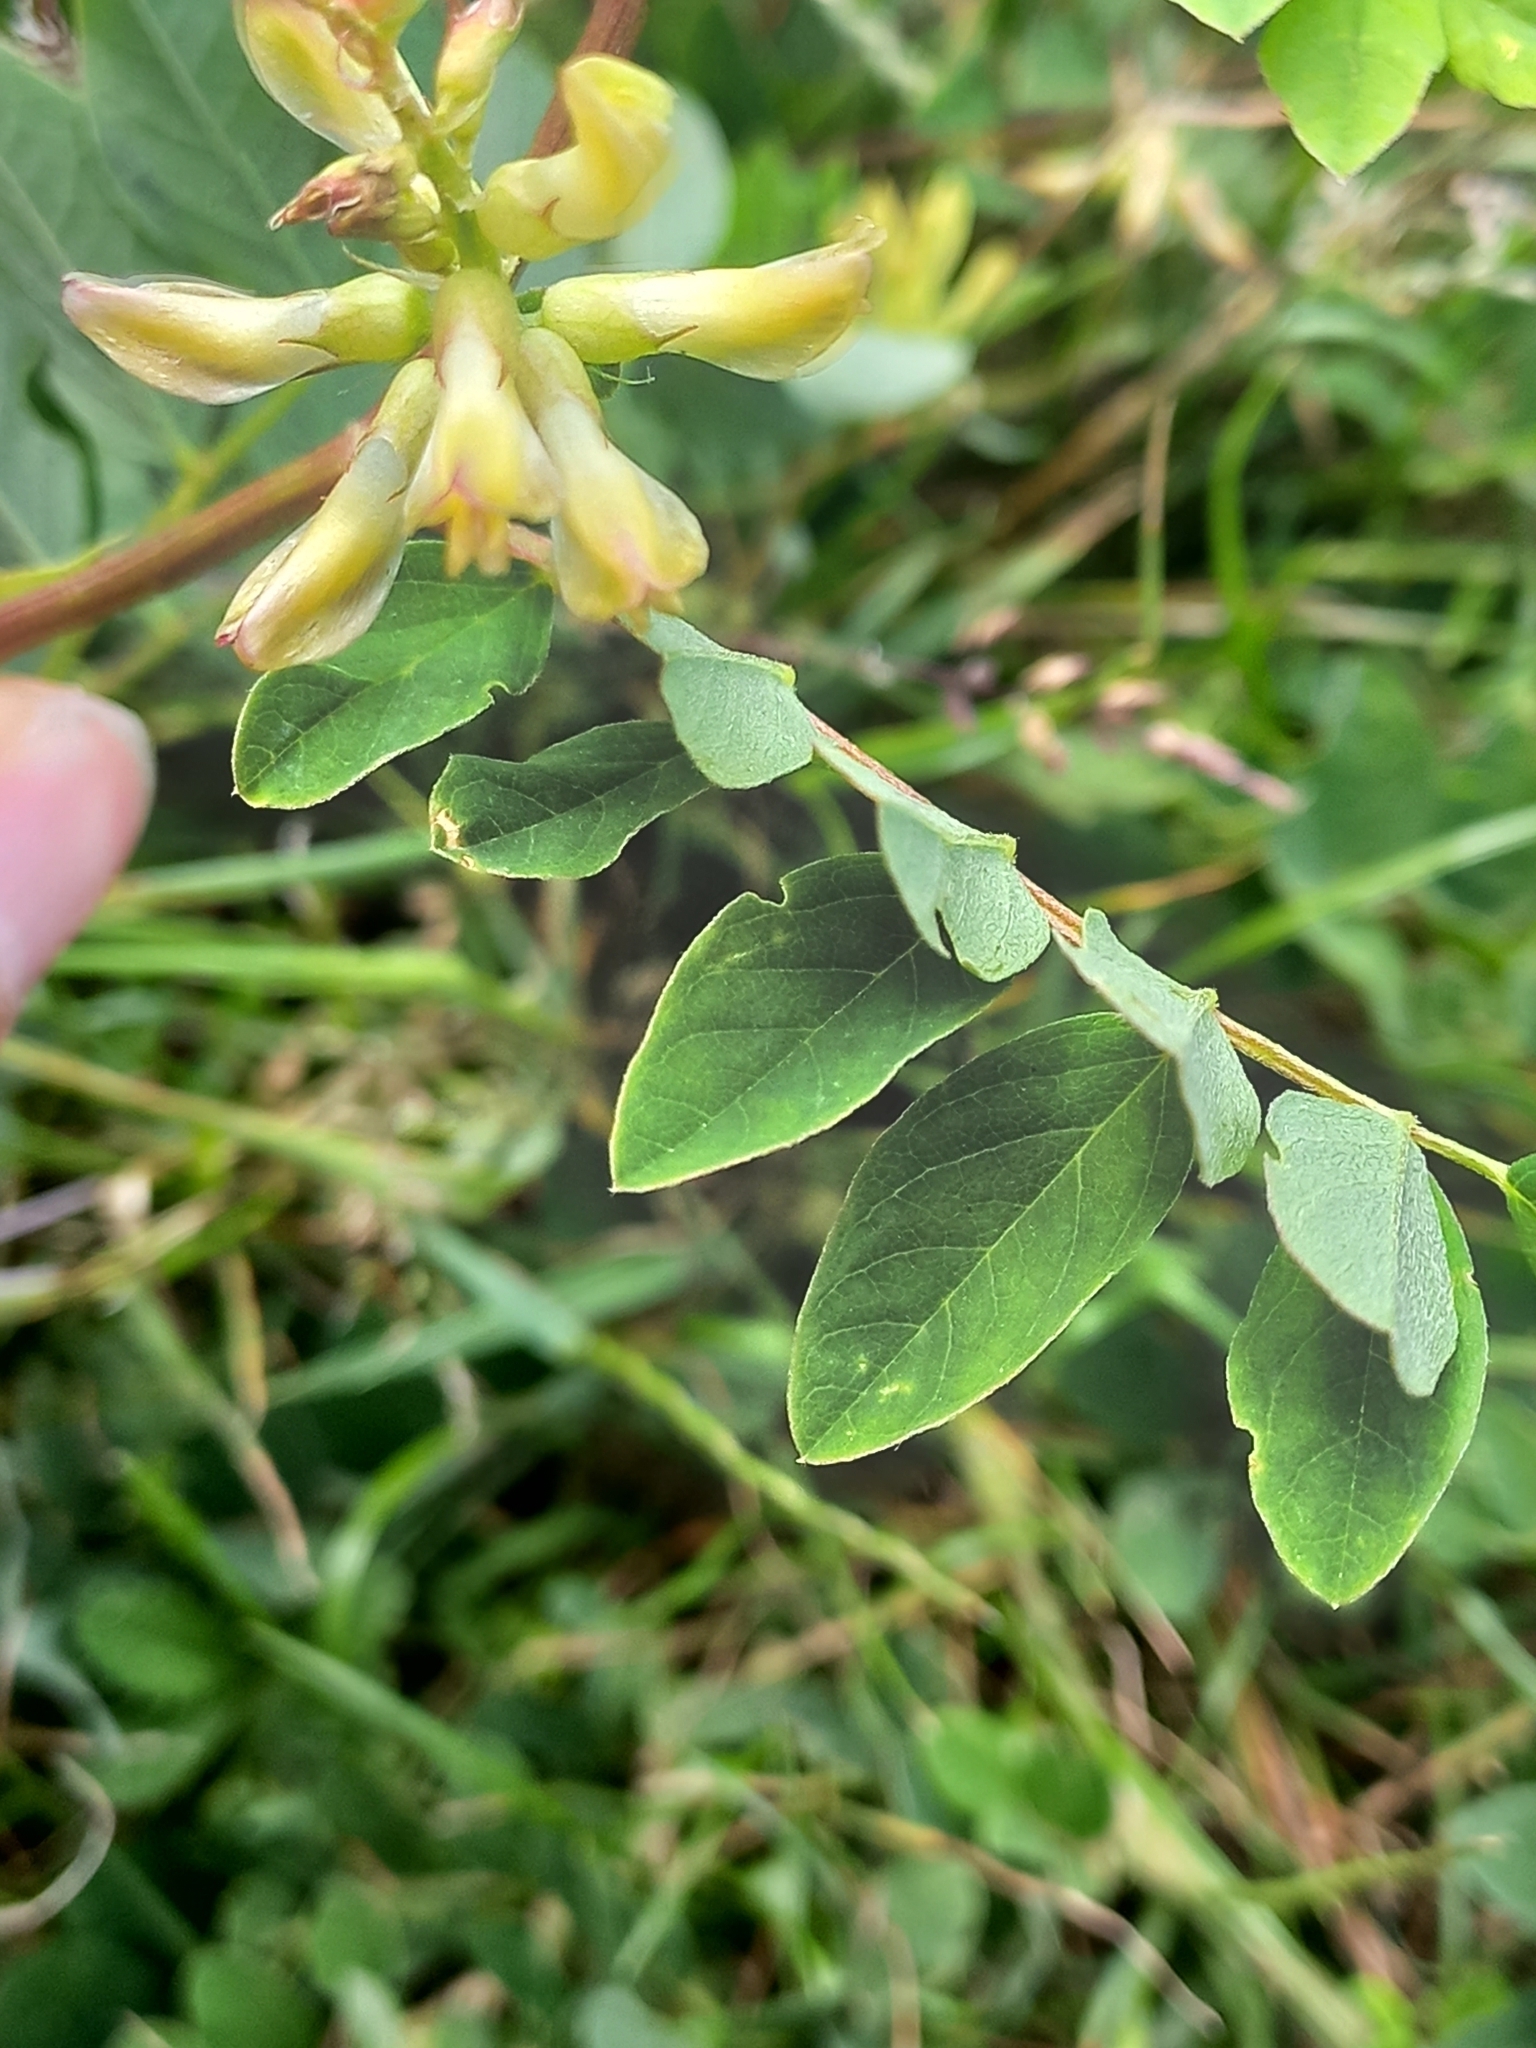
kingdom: Plantae
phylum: Tracheophyta
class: Magnoliopsida
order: Fabales
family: Fabaceae
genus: Astragalus
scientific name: Astragalus glycyphyllos
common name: Wild liquorice
